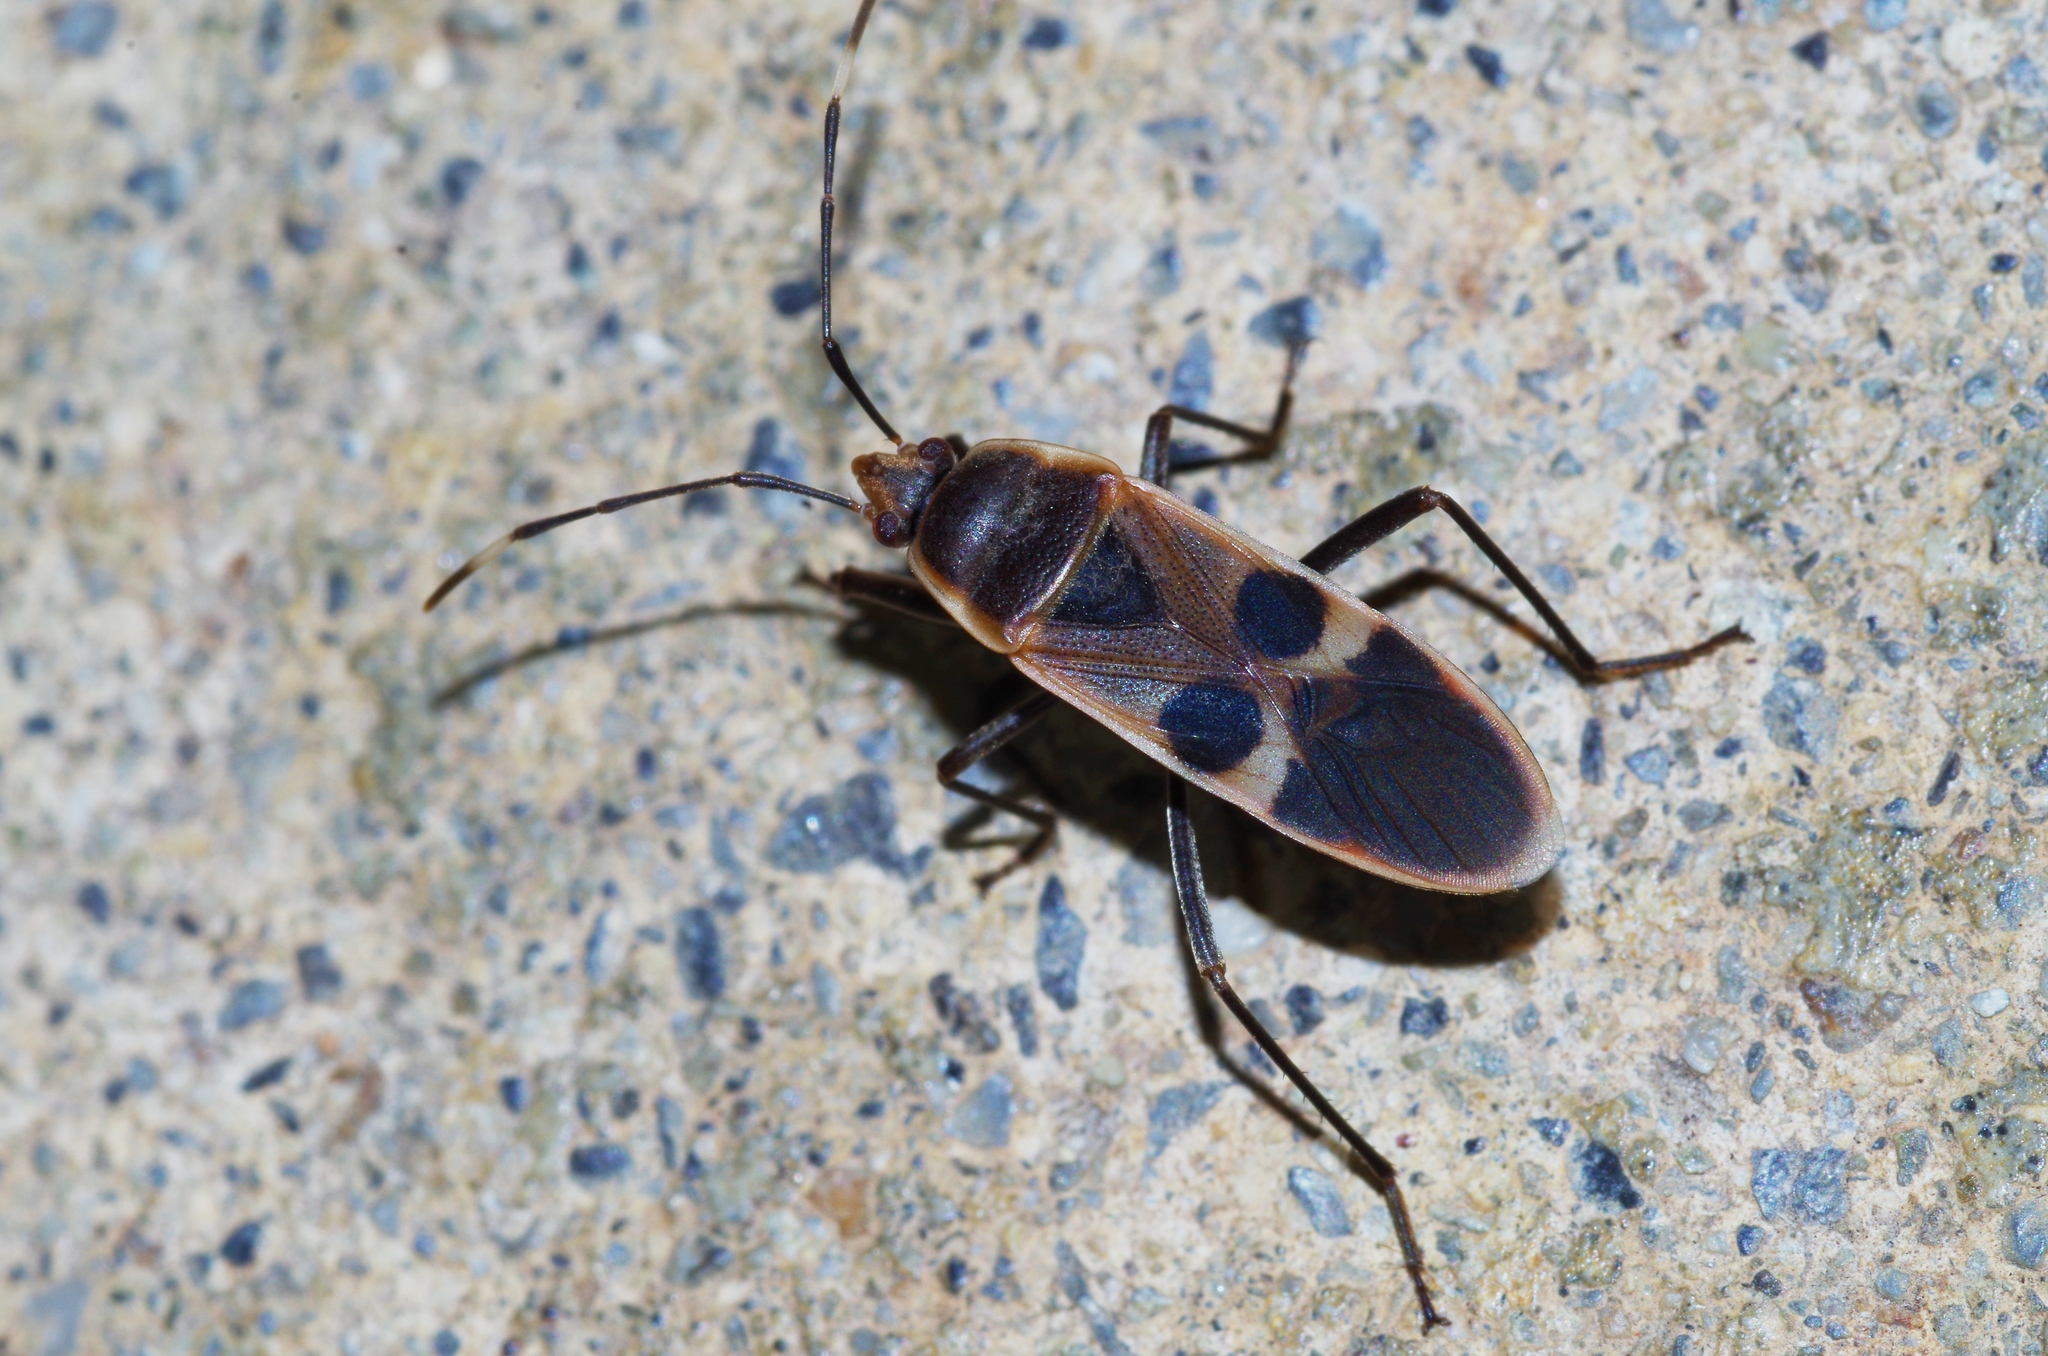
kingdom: Animalia
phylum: Arthropoda
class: Insecta
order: Hemiptera
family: Largidae
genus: Physopelta
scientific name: Physopelta gutta
